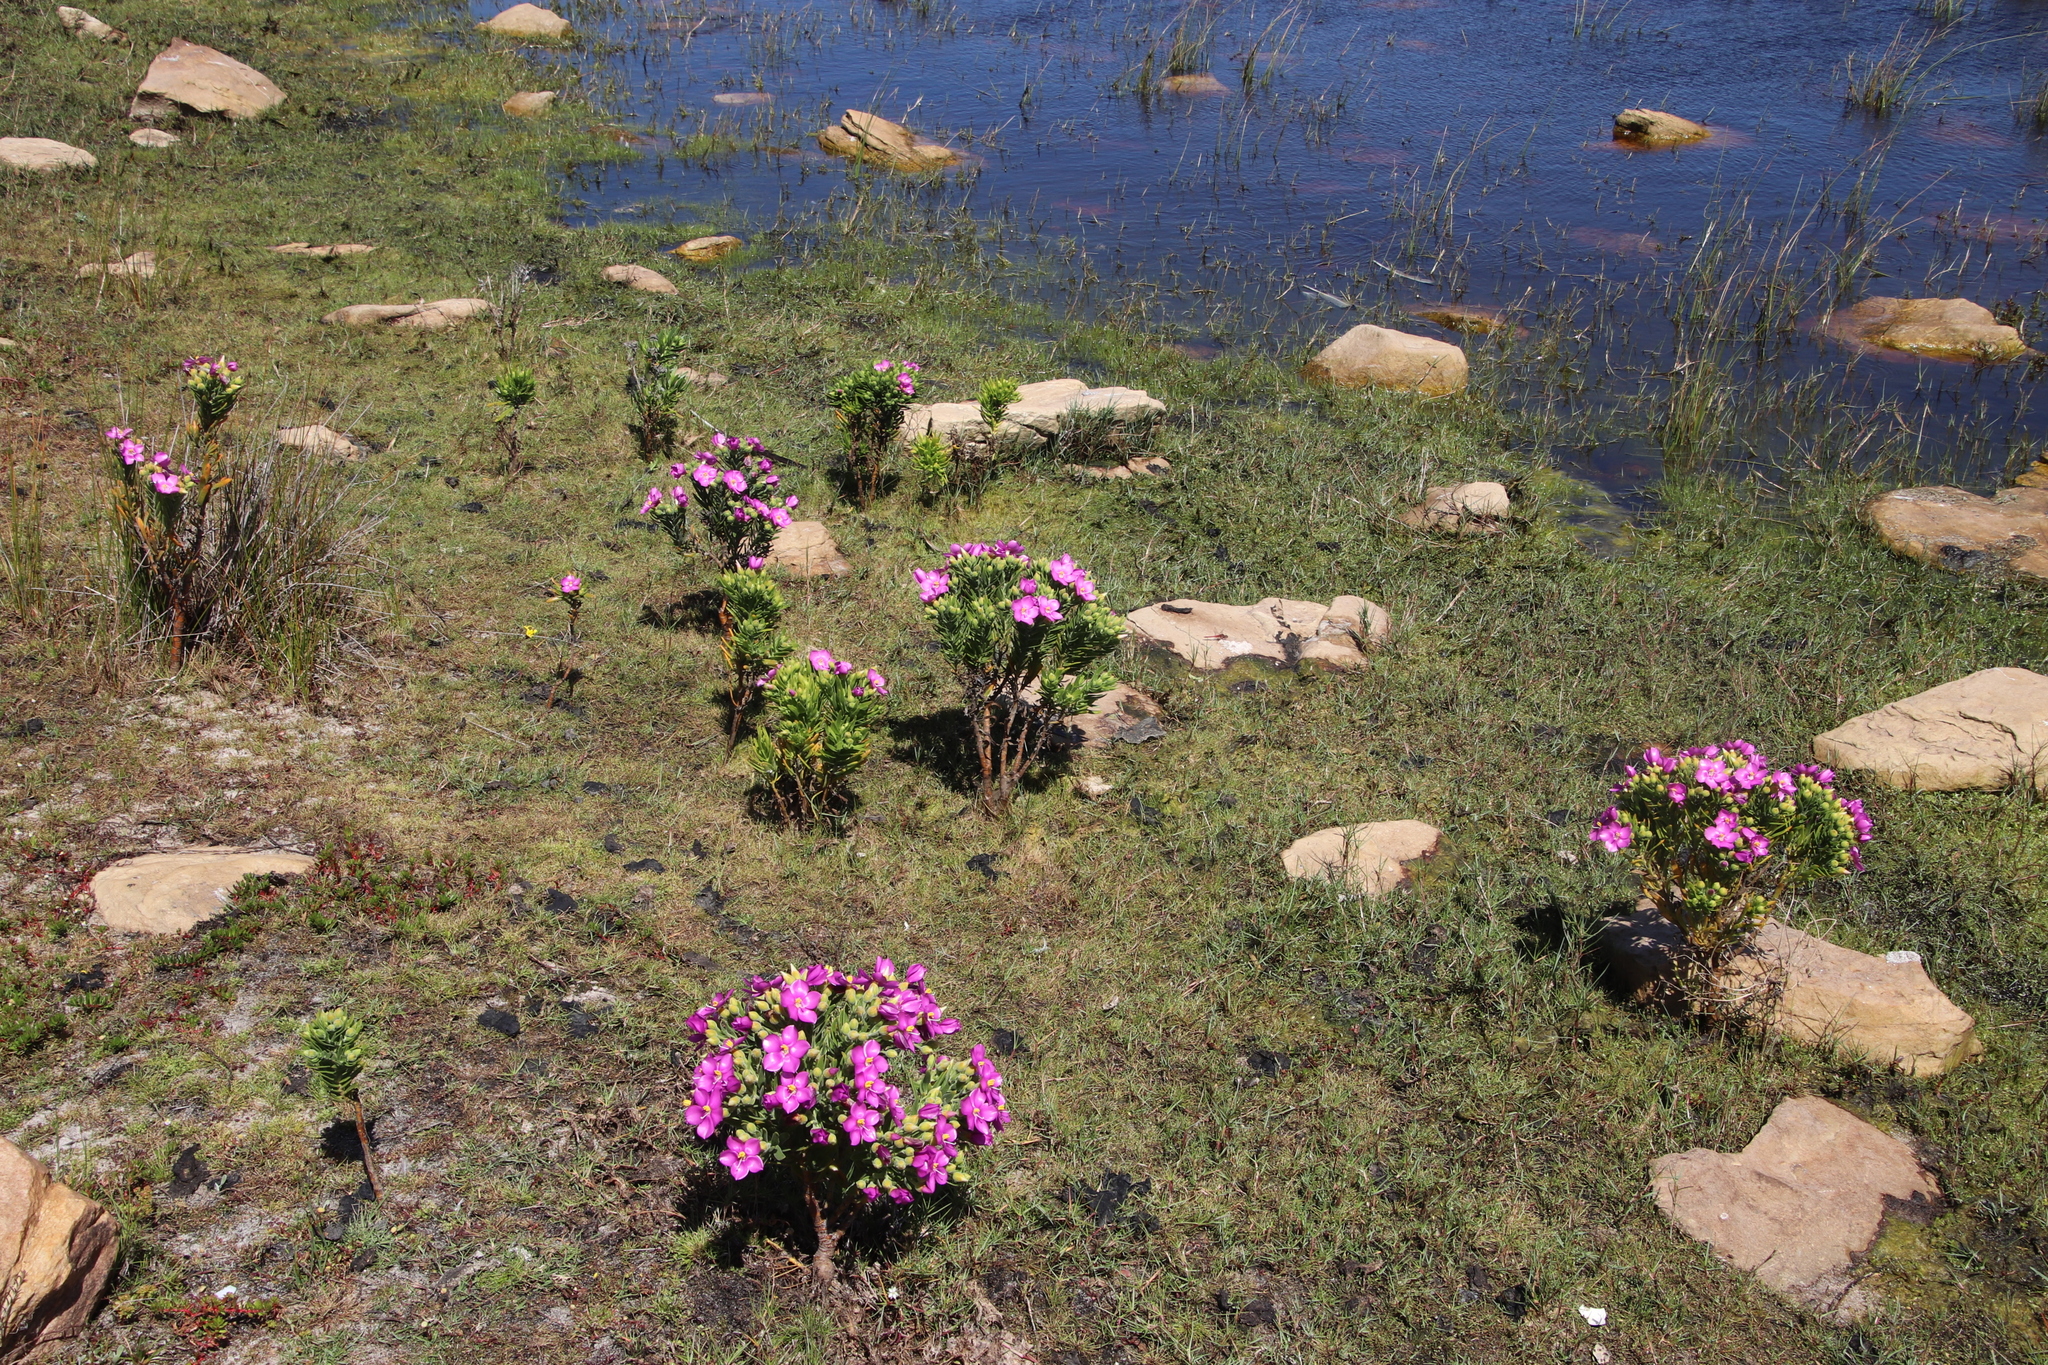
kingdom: Plantae
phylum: Tracheophyta
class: Magnoliopsida
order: Gentianales
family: Gentianaceae
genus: Orphium
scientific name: Orphium frutescens
